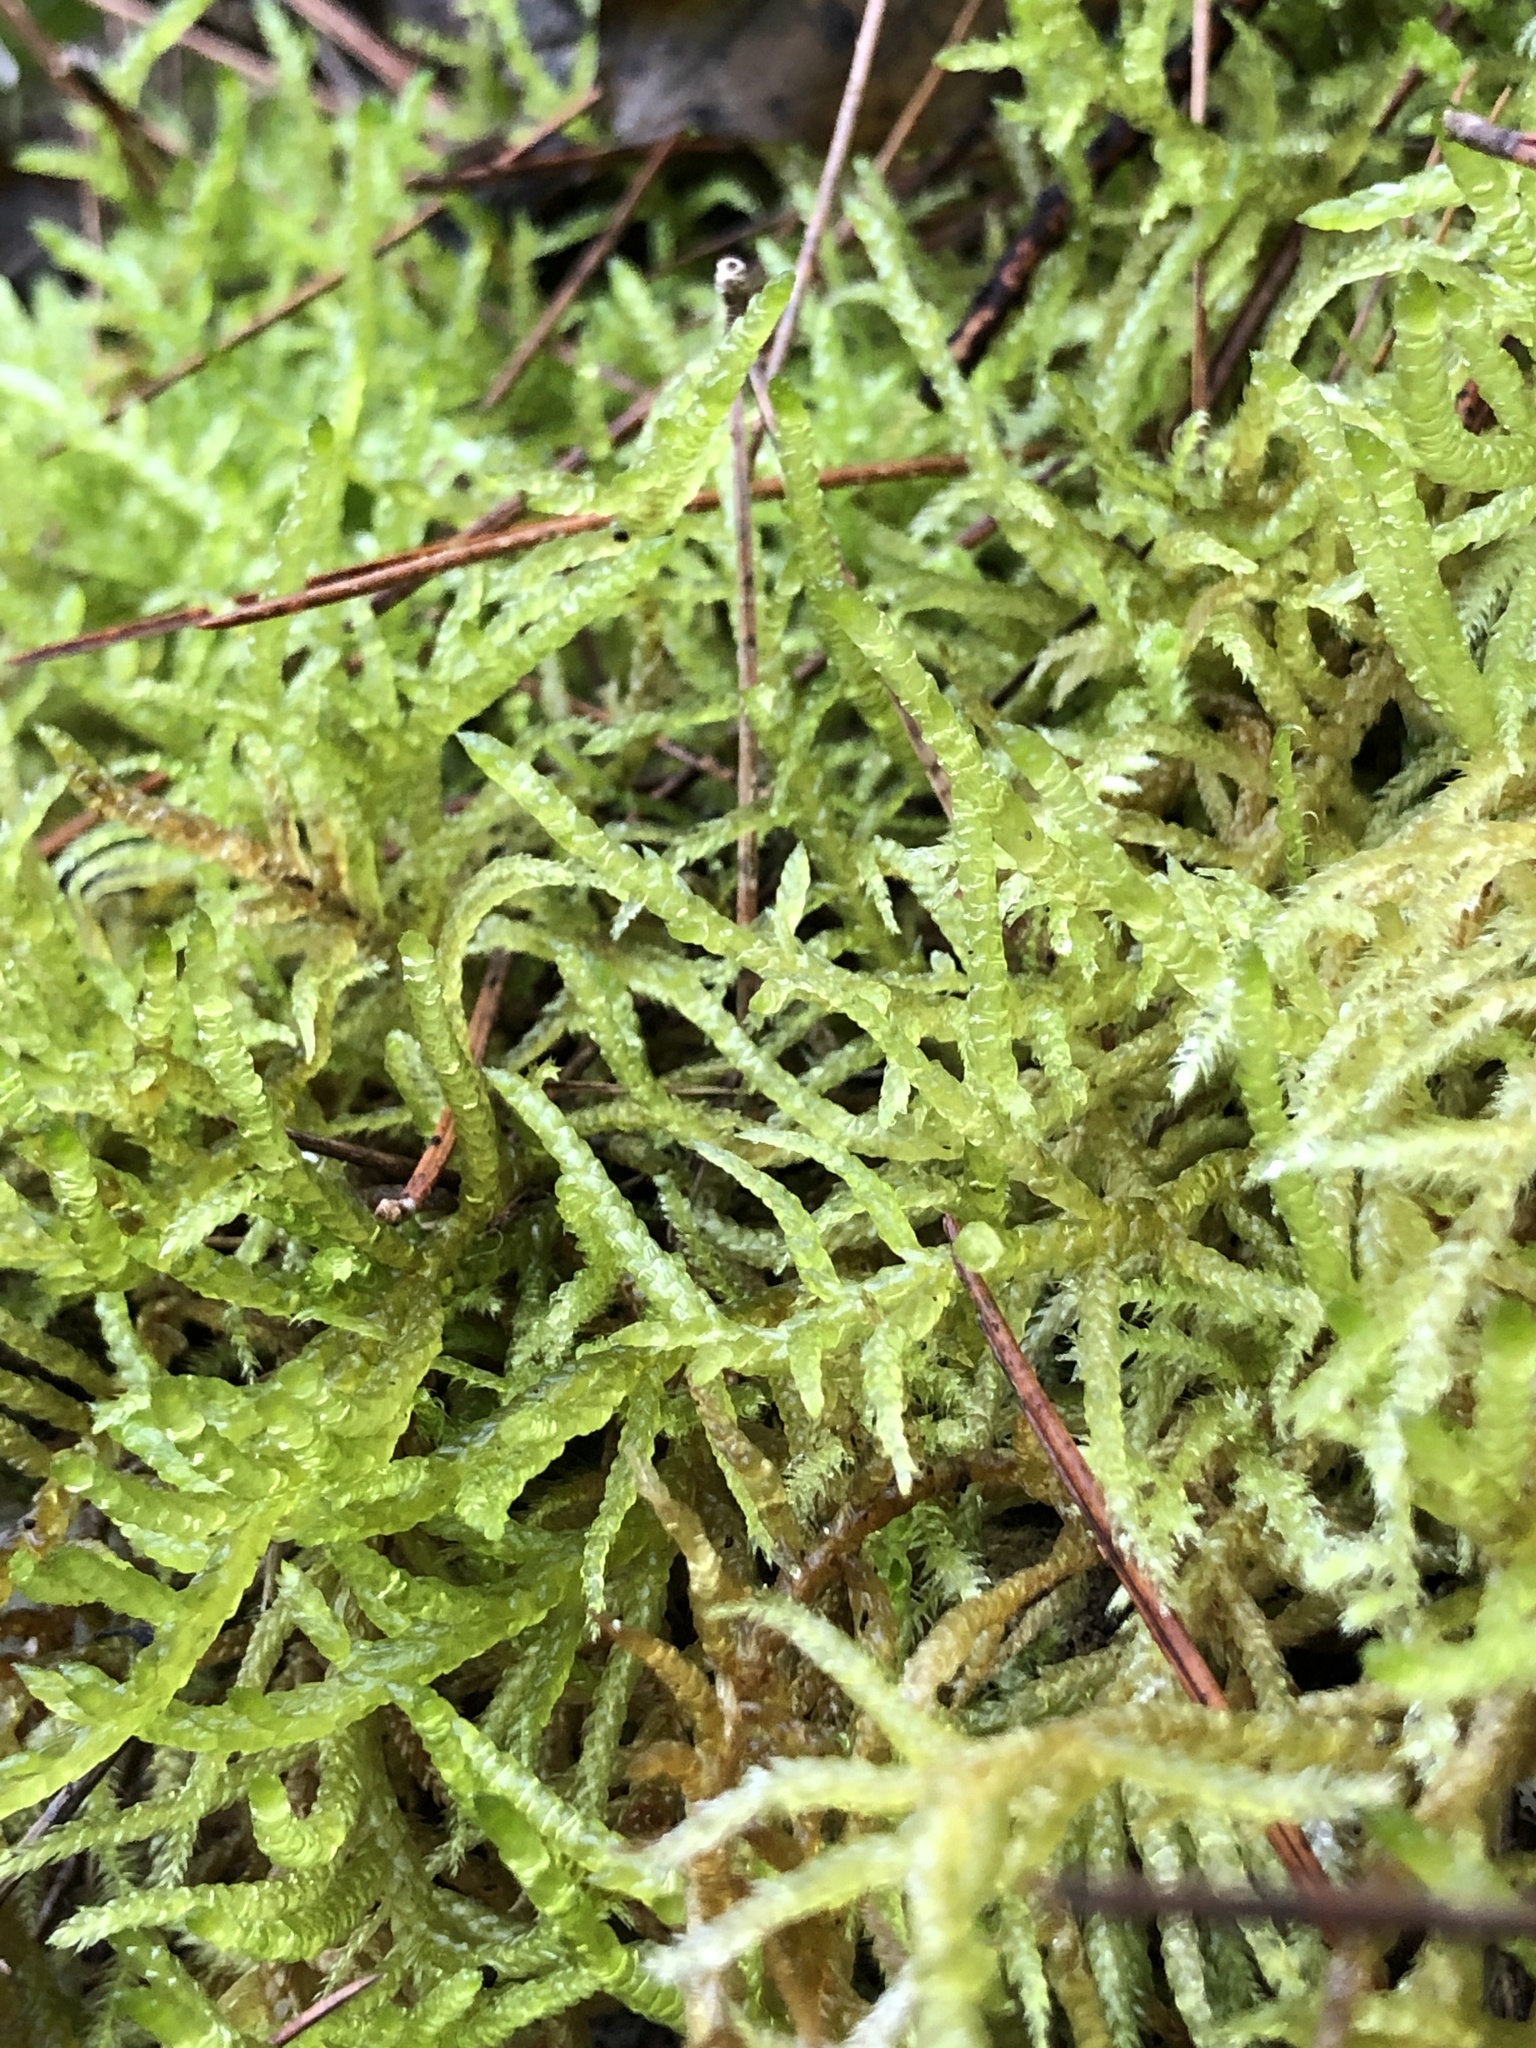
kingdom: Plantae
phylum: Bryophyta
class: Bryopsida
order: Hypnales
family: Brachytheciaceae
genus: Pseudoscleropodium
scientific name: Pseudoscleropodium purum
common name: Neat feather-moss
